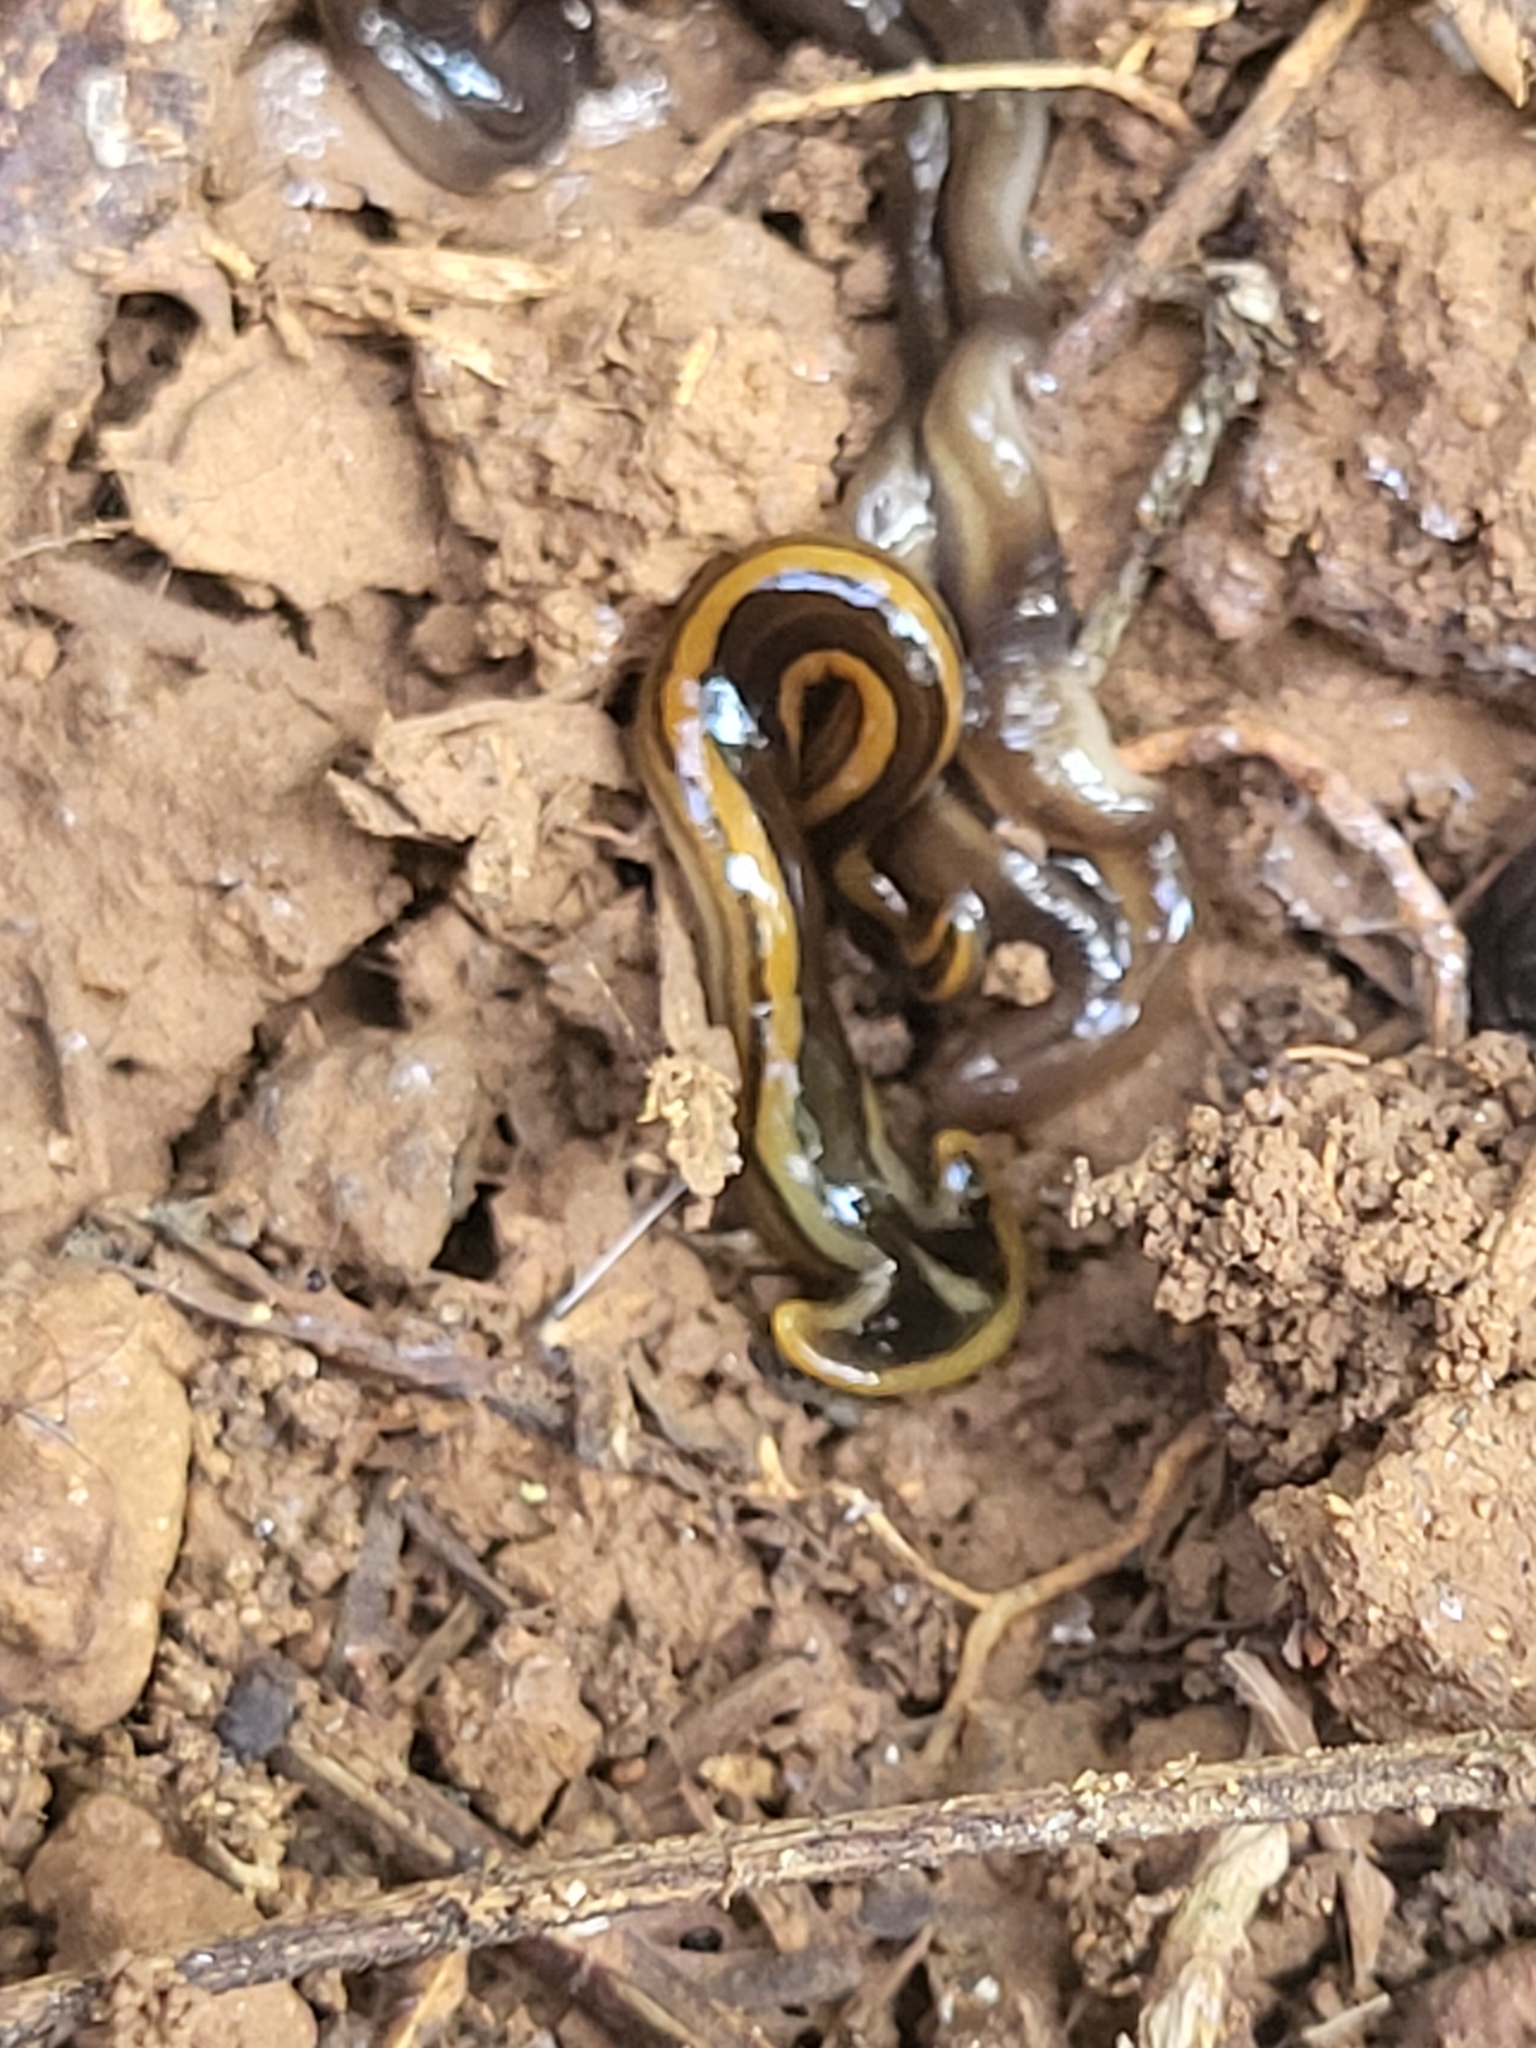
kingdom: Animalia
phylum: Platyhelminthes
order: Tricladida
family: Geoplanidae
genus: Humbertium
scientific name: Humbertium proserpina
